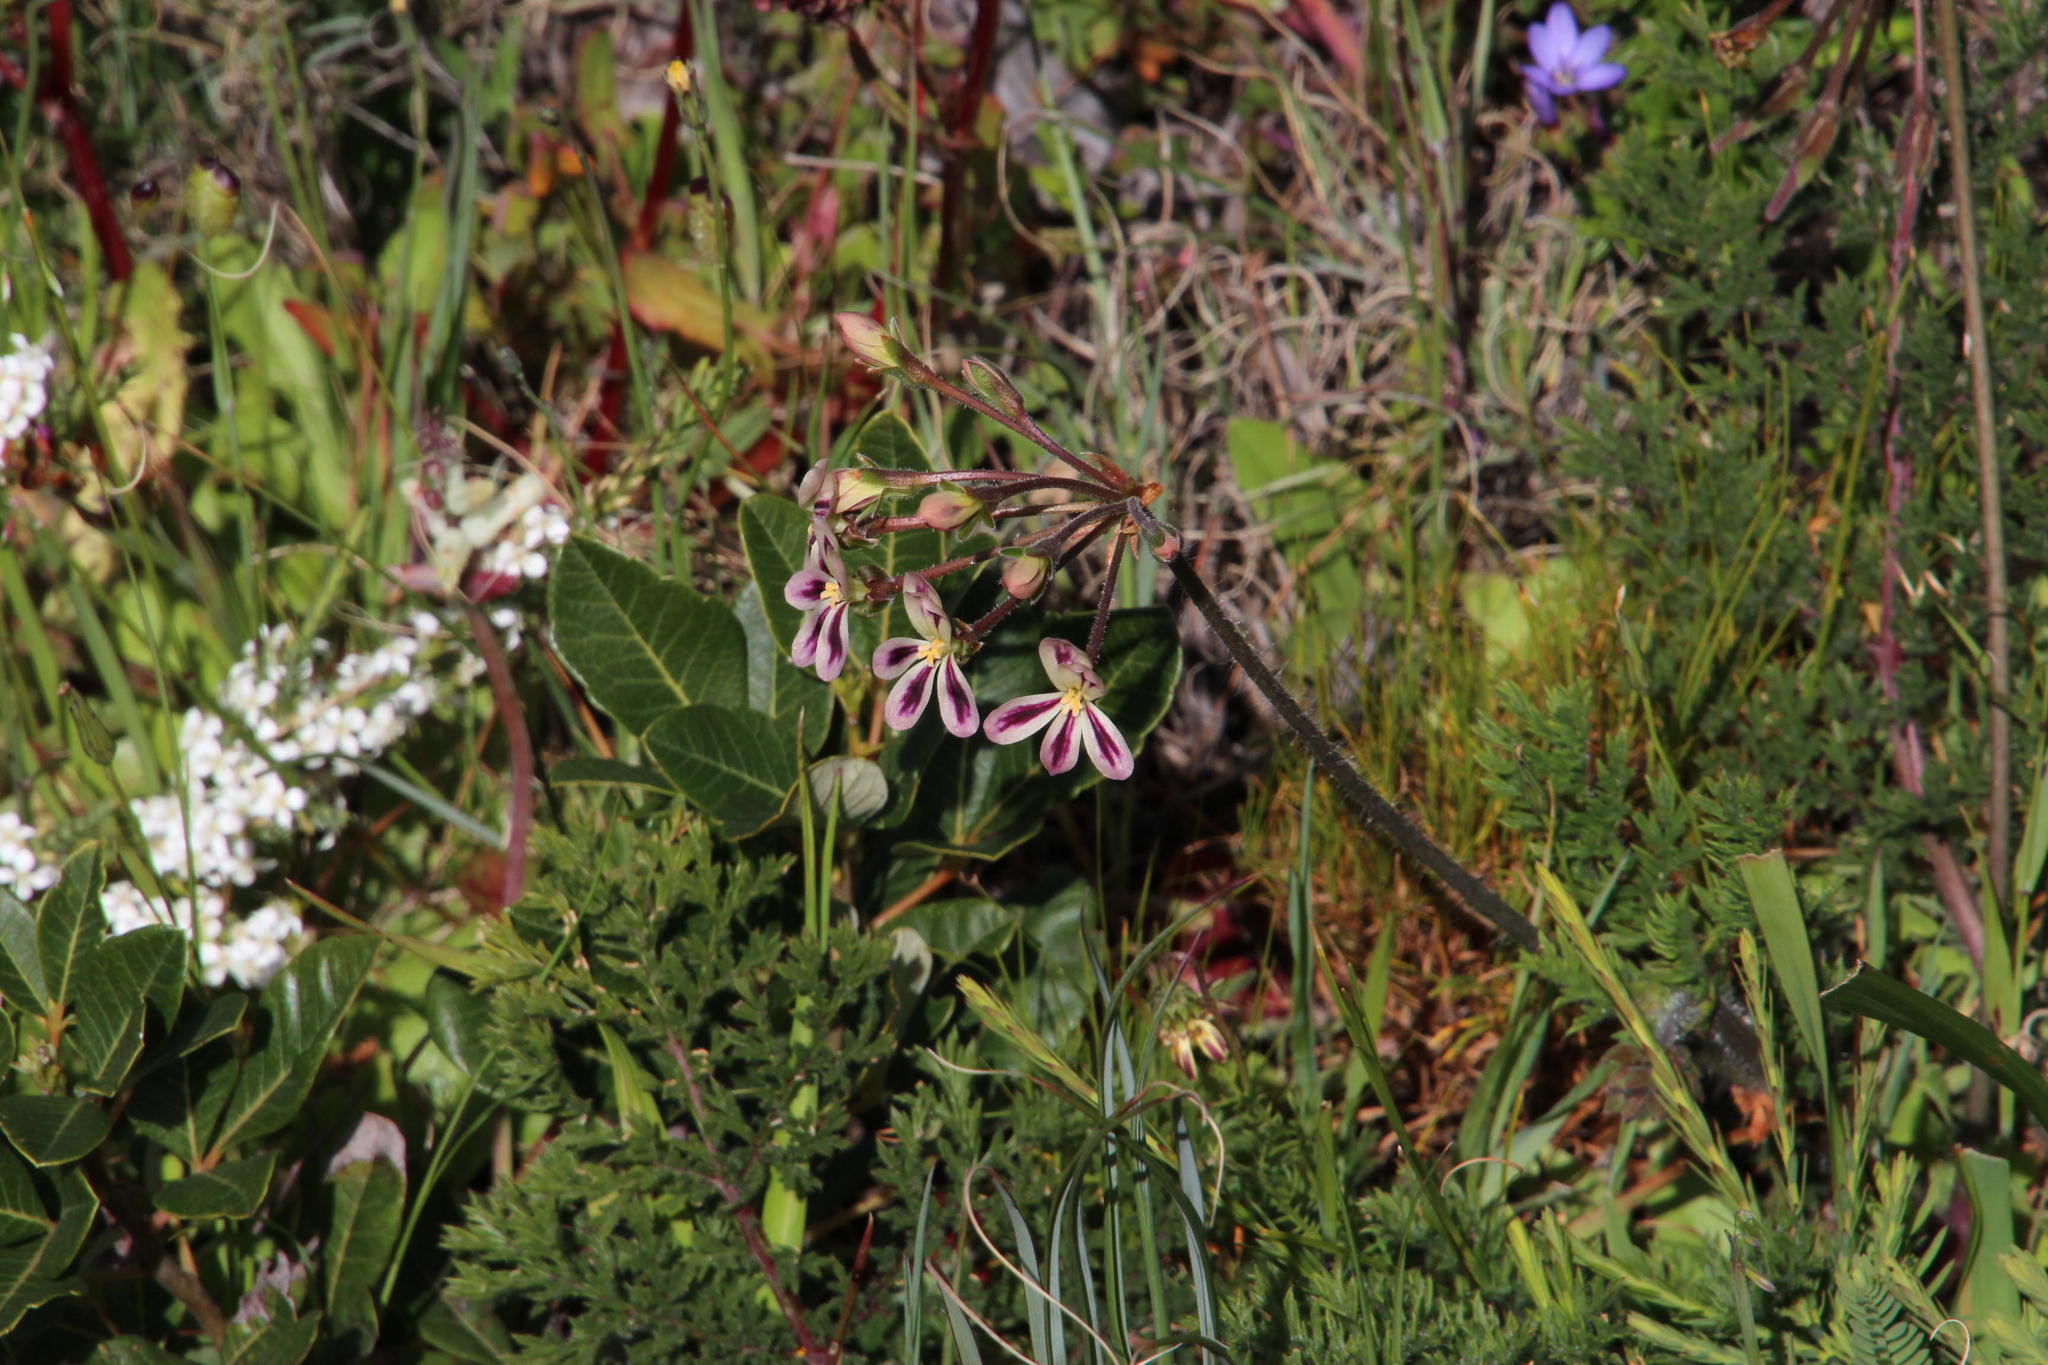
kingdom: Plantae
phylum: Tracheophyta
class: Magnoliopsida
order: Geraniales
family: Geraniaceae
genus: Pelargonium
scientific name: Pelargonium triste
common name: Night-scent pelargonium
